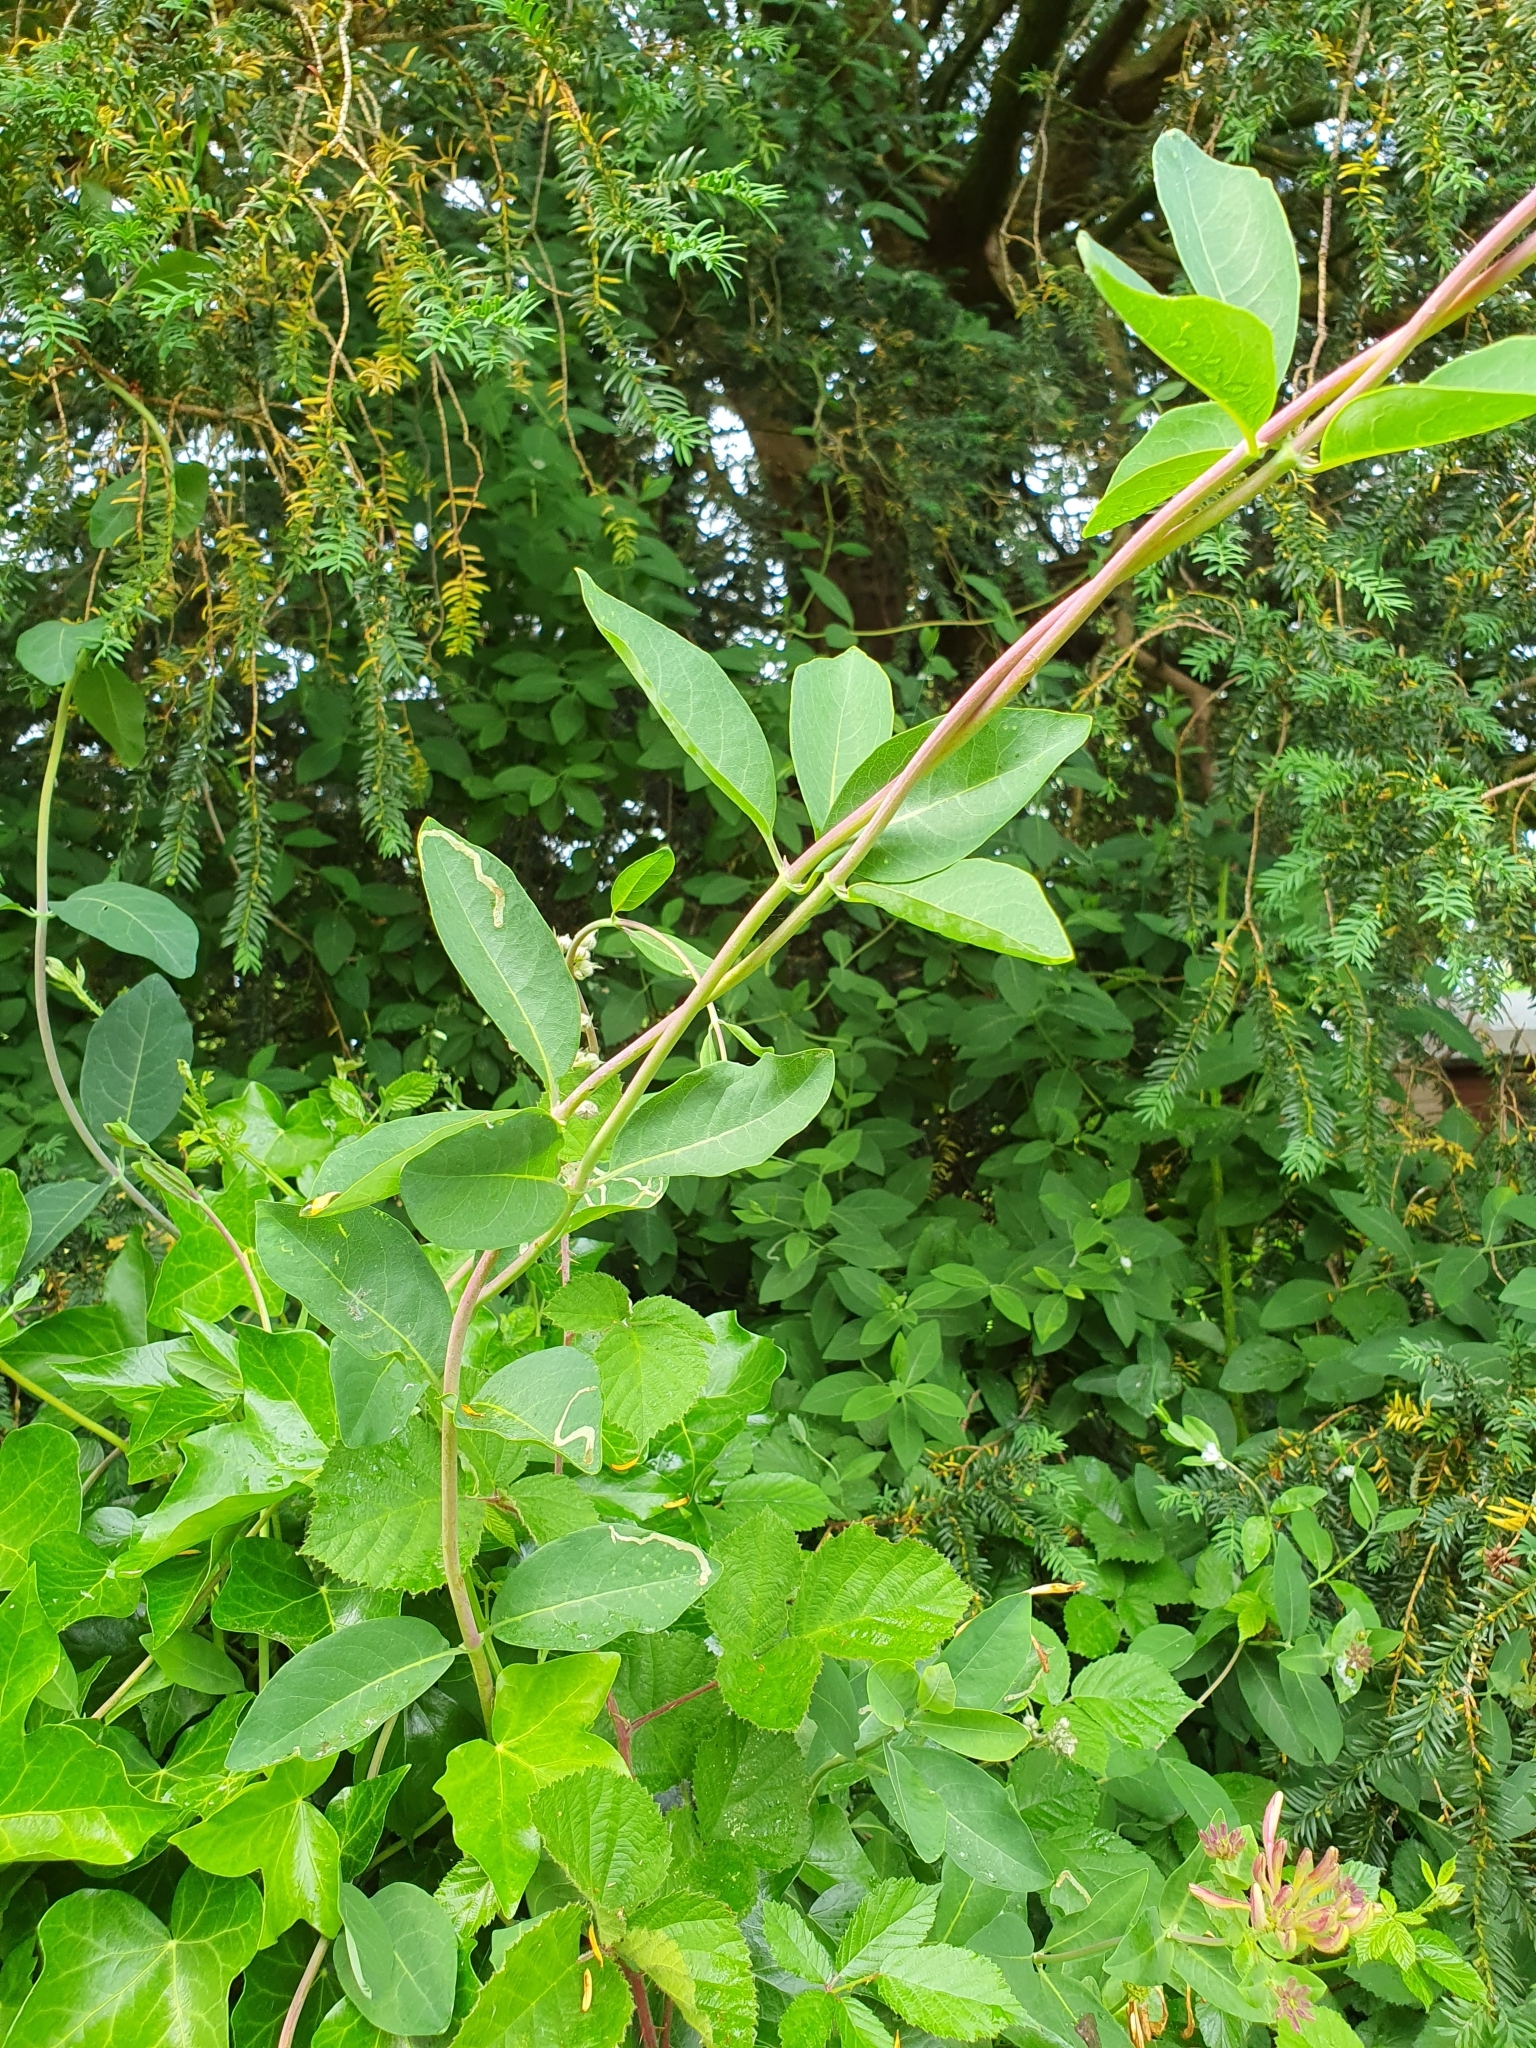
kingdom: Plantae
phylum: Tracheophyta
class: Magnoliopsida
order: Dipsacales
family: Caprifoliaceae
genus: Lonicera
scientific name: Lonicera periclymenum
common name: European honeysuckle
